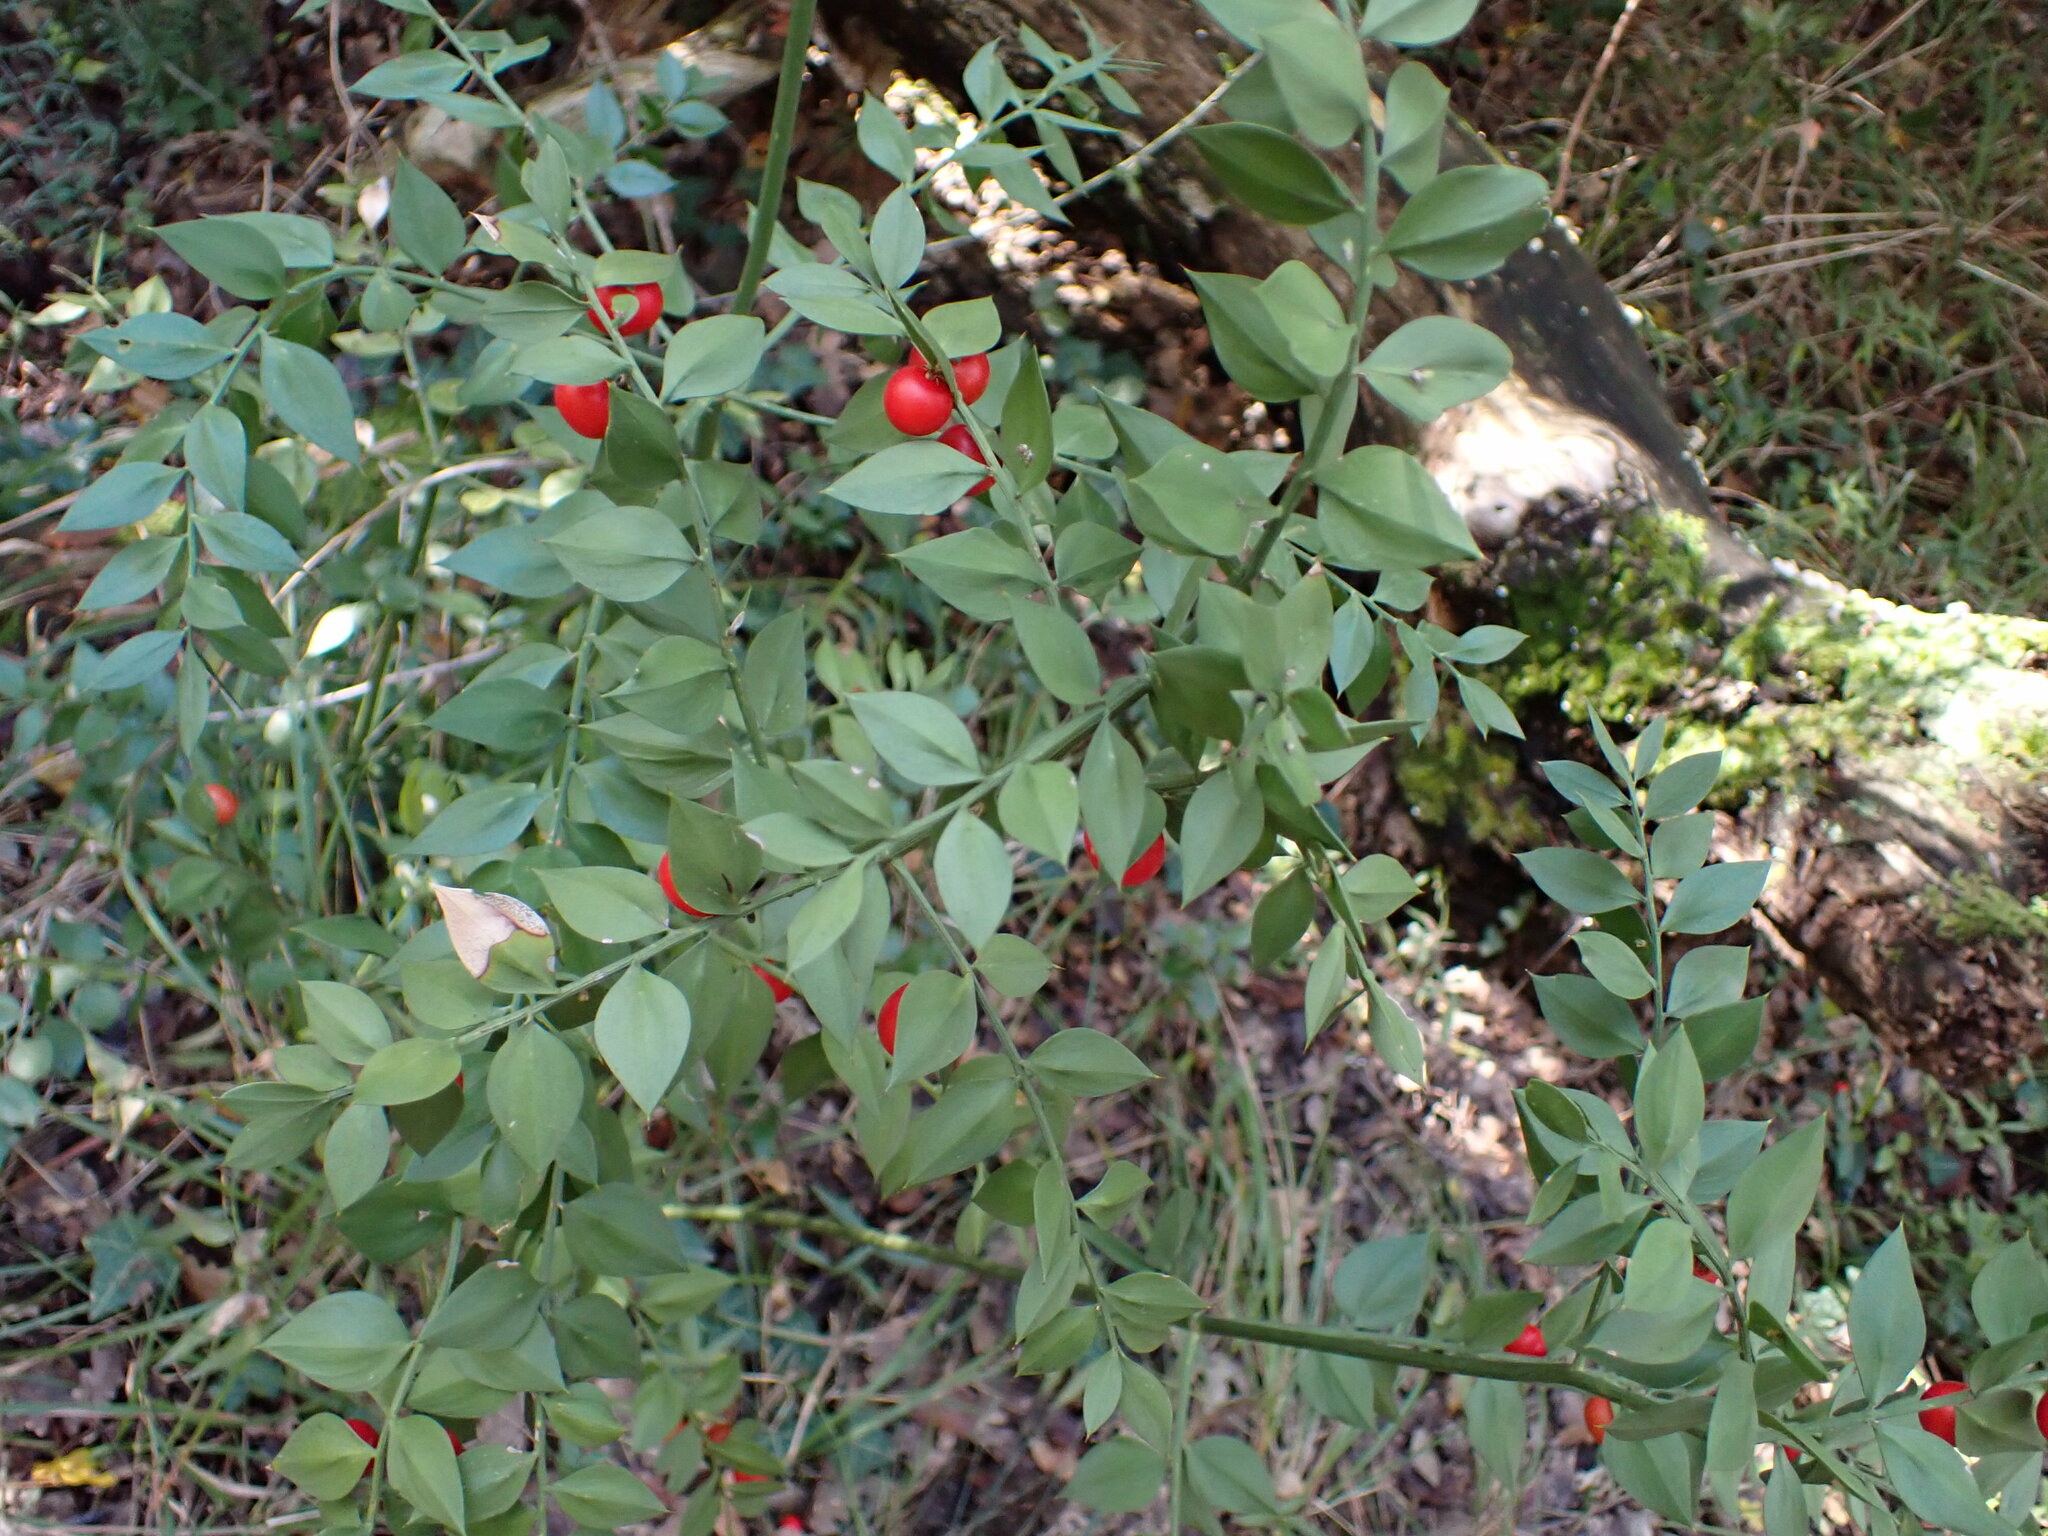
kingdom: Plantae
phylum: Tracheophyta
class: Liliopsida
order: Asparagales
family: Asparagaceae
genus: Ruscus
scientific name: Ruscus aculeatus
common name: Butcher's-broom
